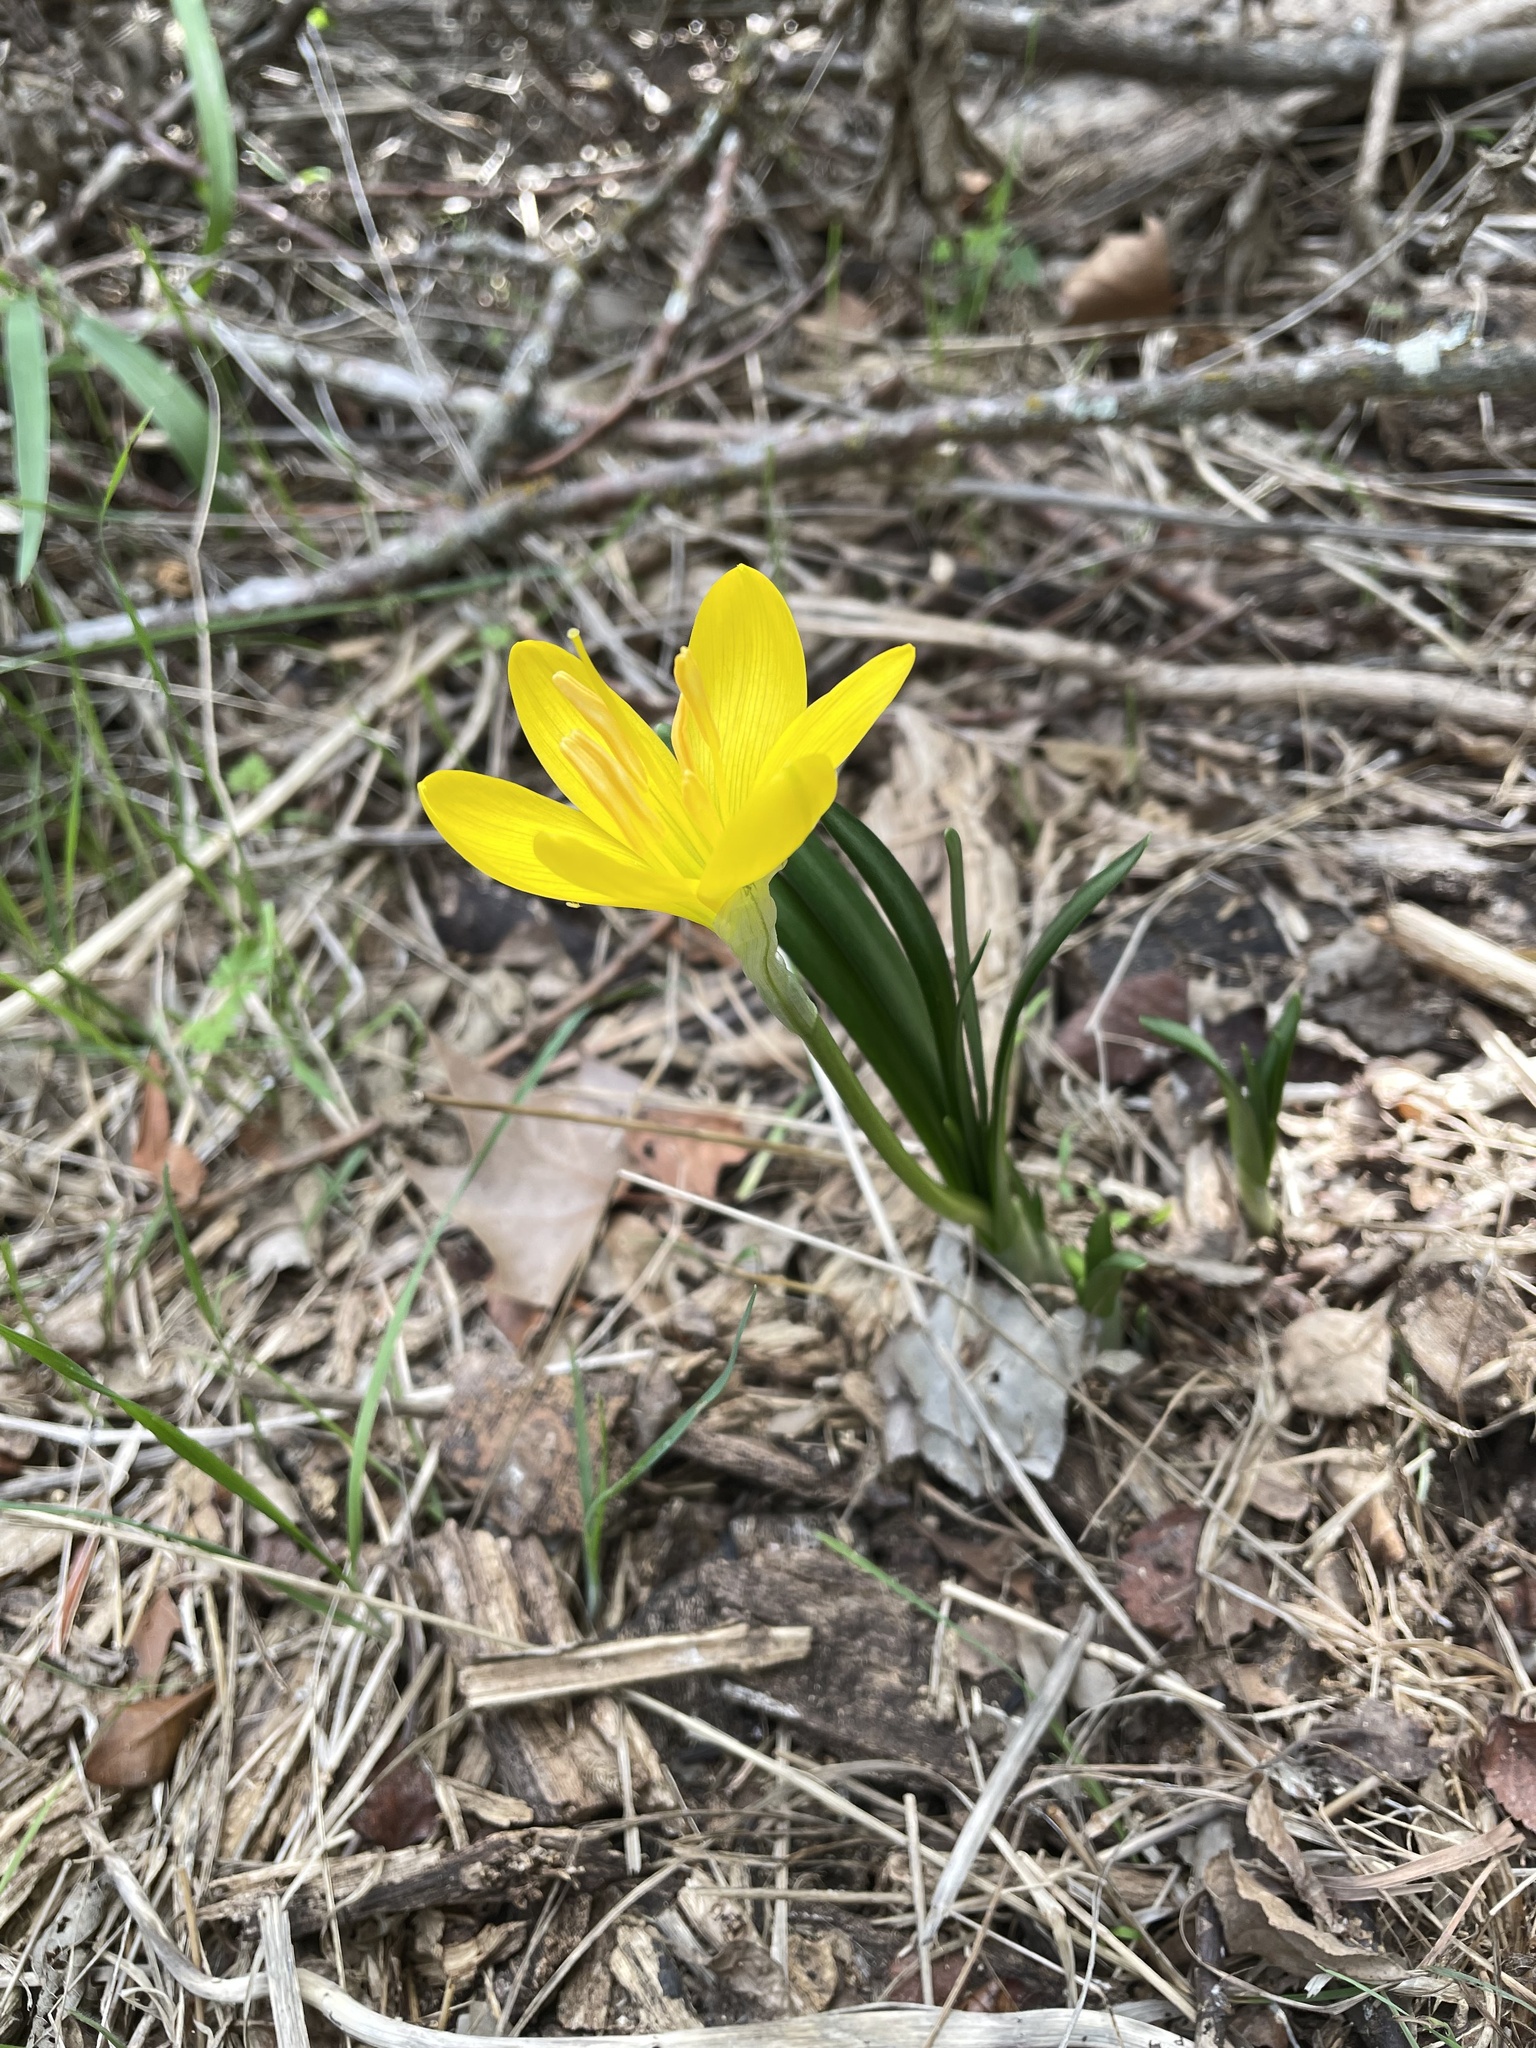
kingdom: Plantae
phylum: Tracheophyta
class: Liliopsida
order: Asparagales
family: Amaryllidaceae
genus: Sternbergia
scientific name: Sternbergia lutea
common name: Winter daffodil
